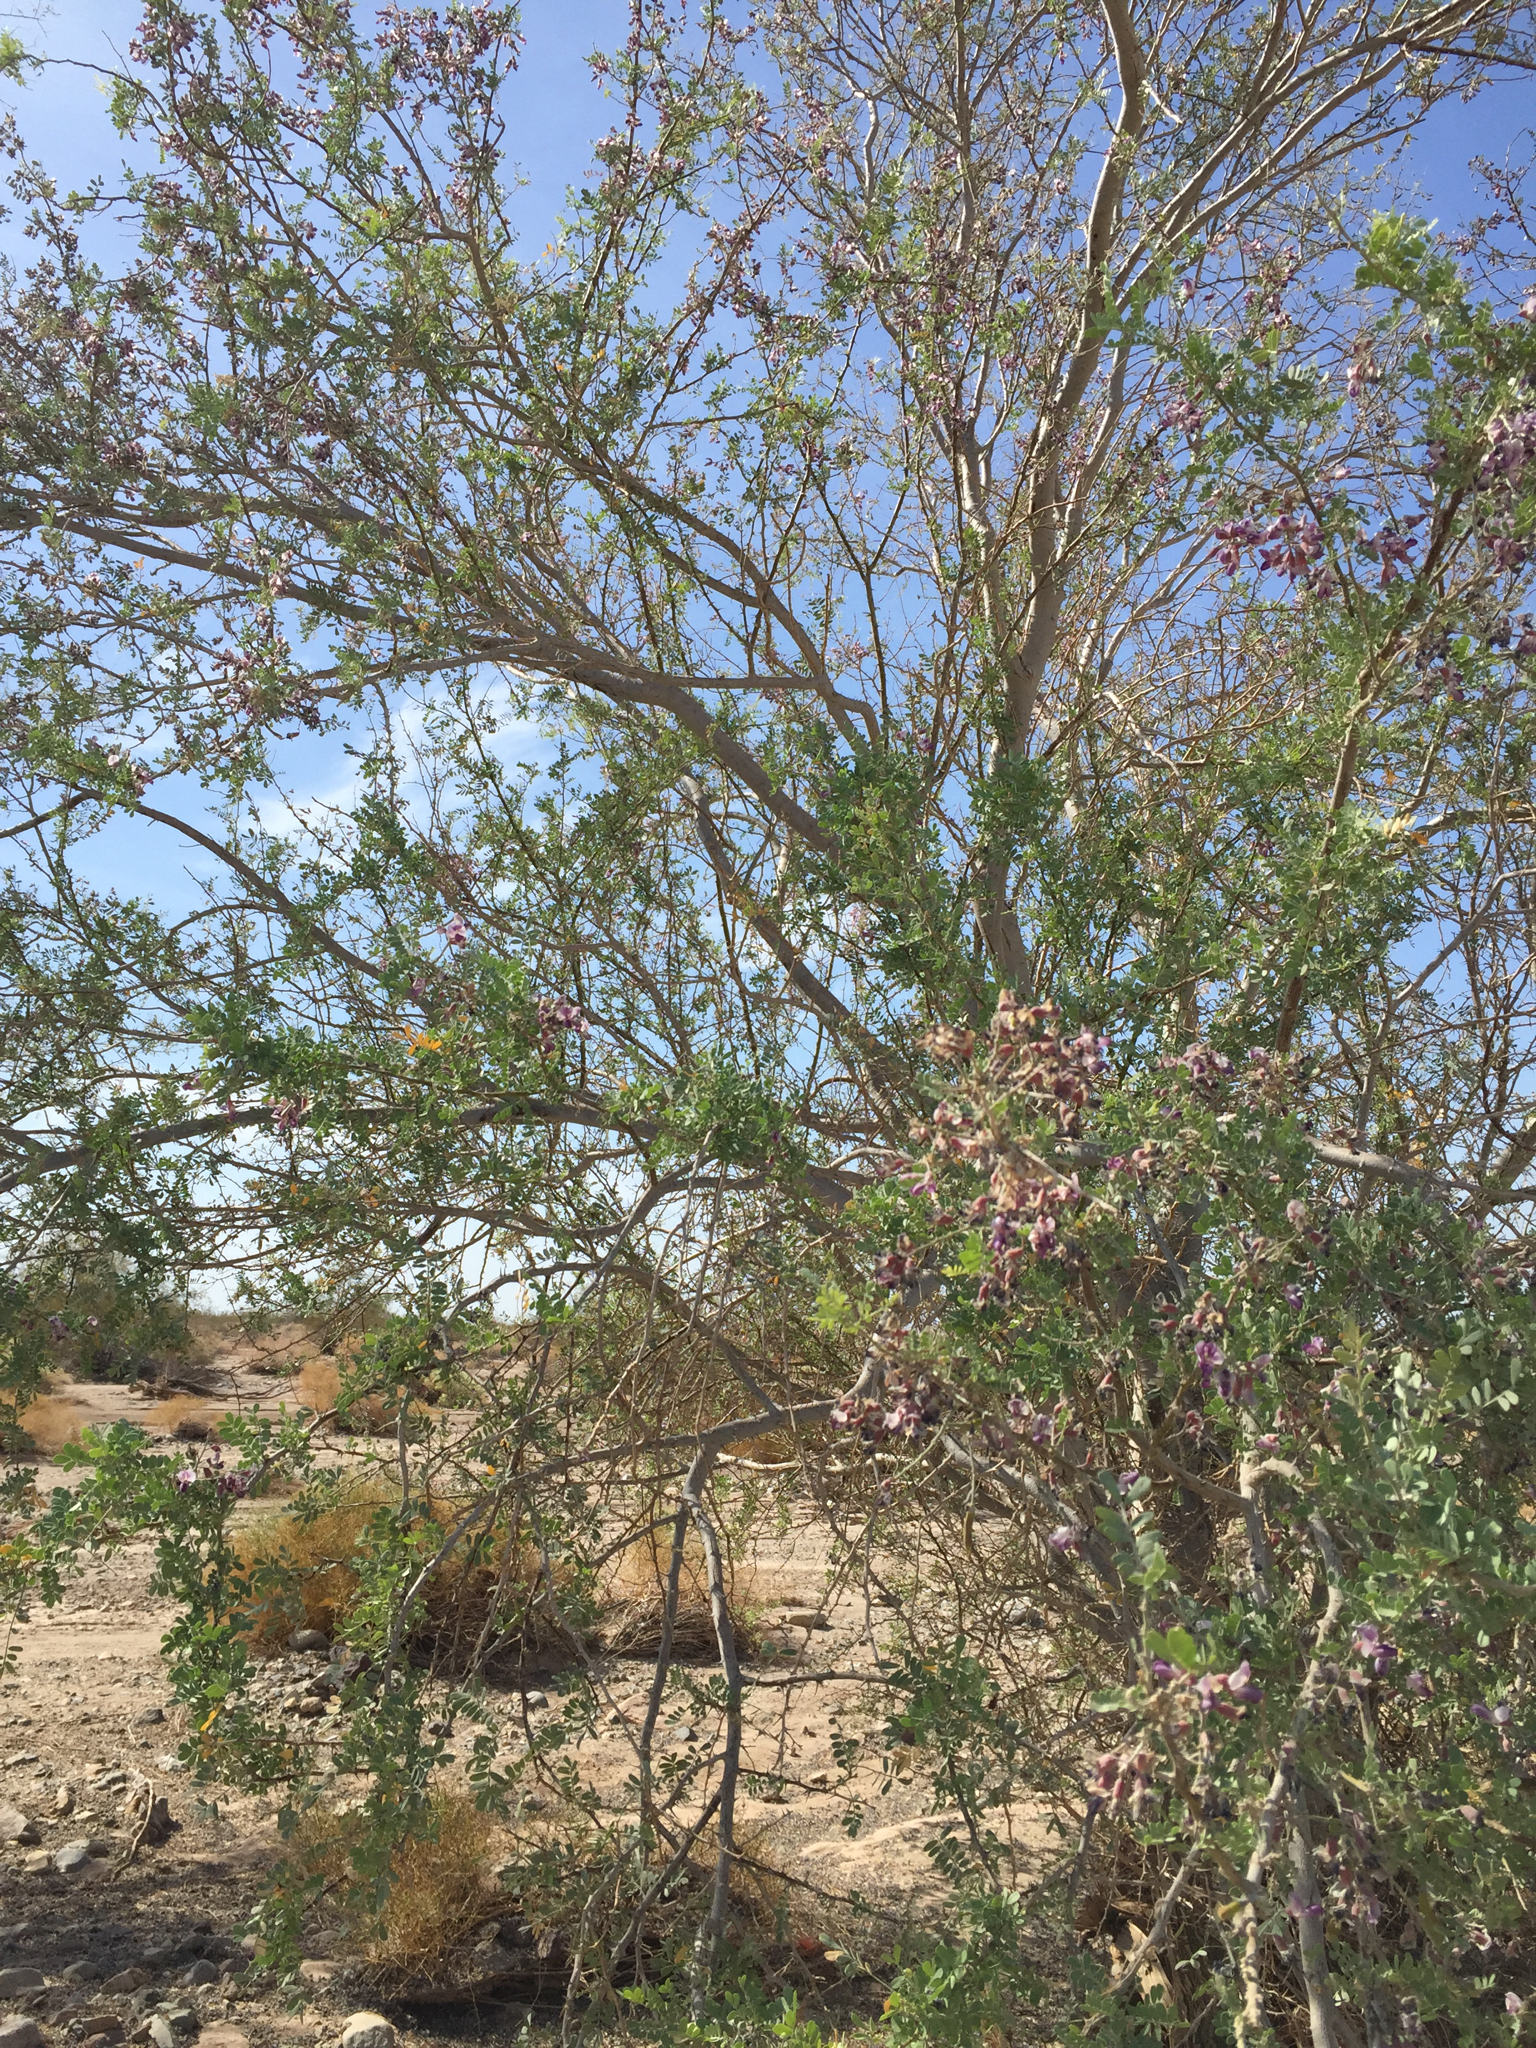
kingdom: Plantae
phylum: Tracheophyta
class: Magnoliopsida
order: Fabales
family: Fabaceae
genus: Olneya
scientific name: Olneya tesota
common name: Desert ironwood
